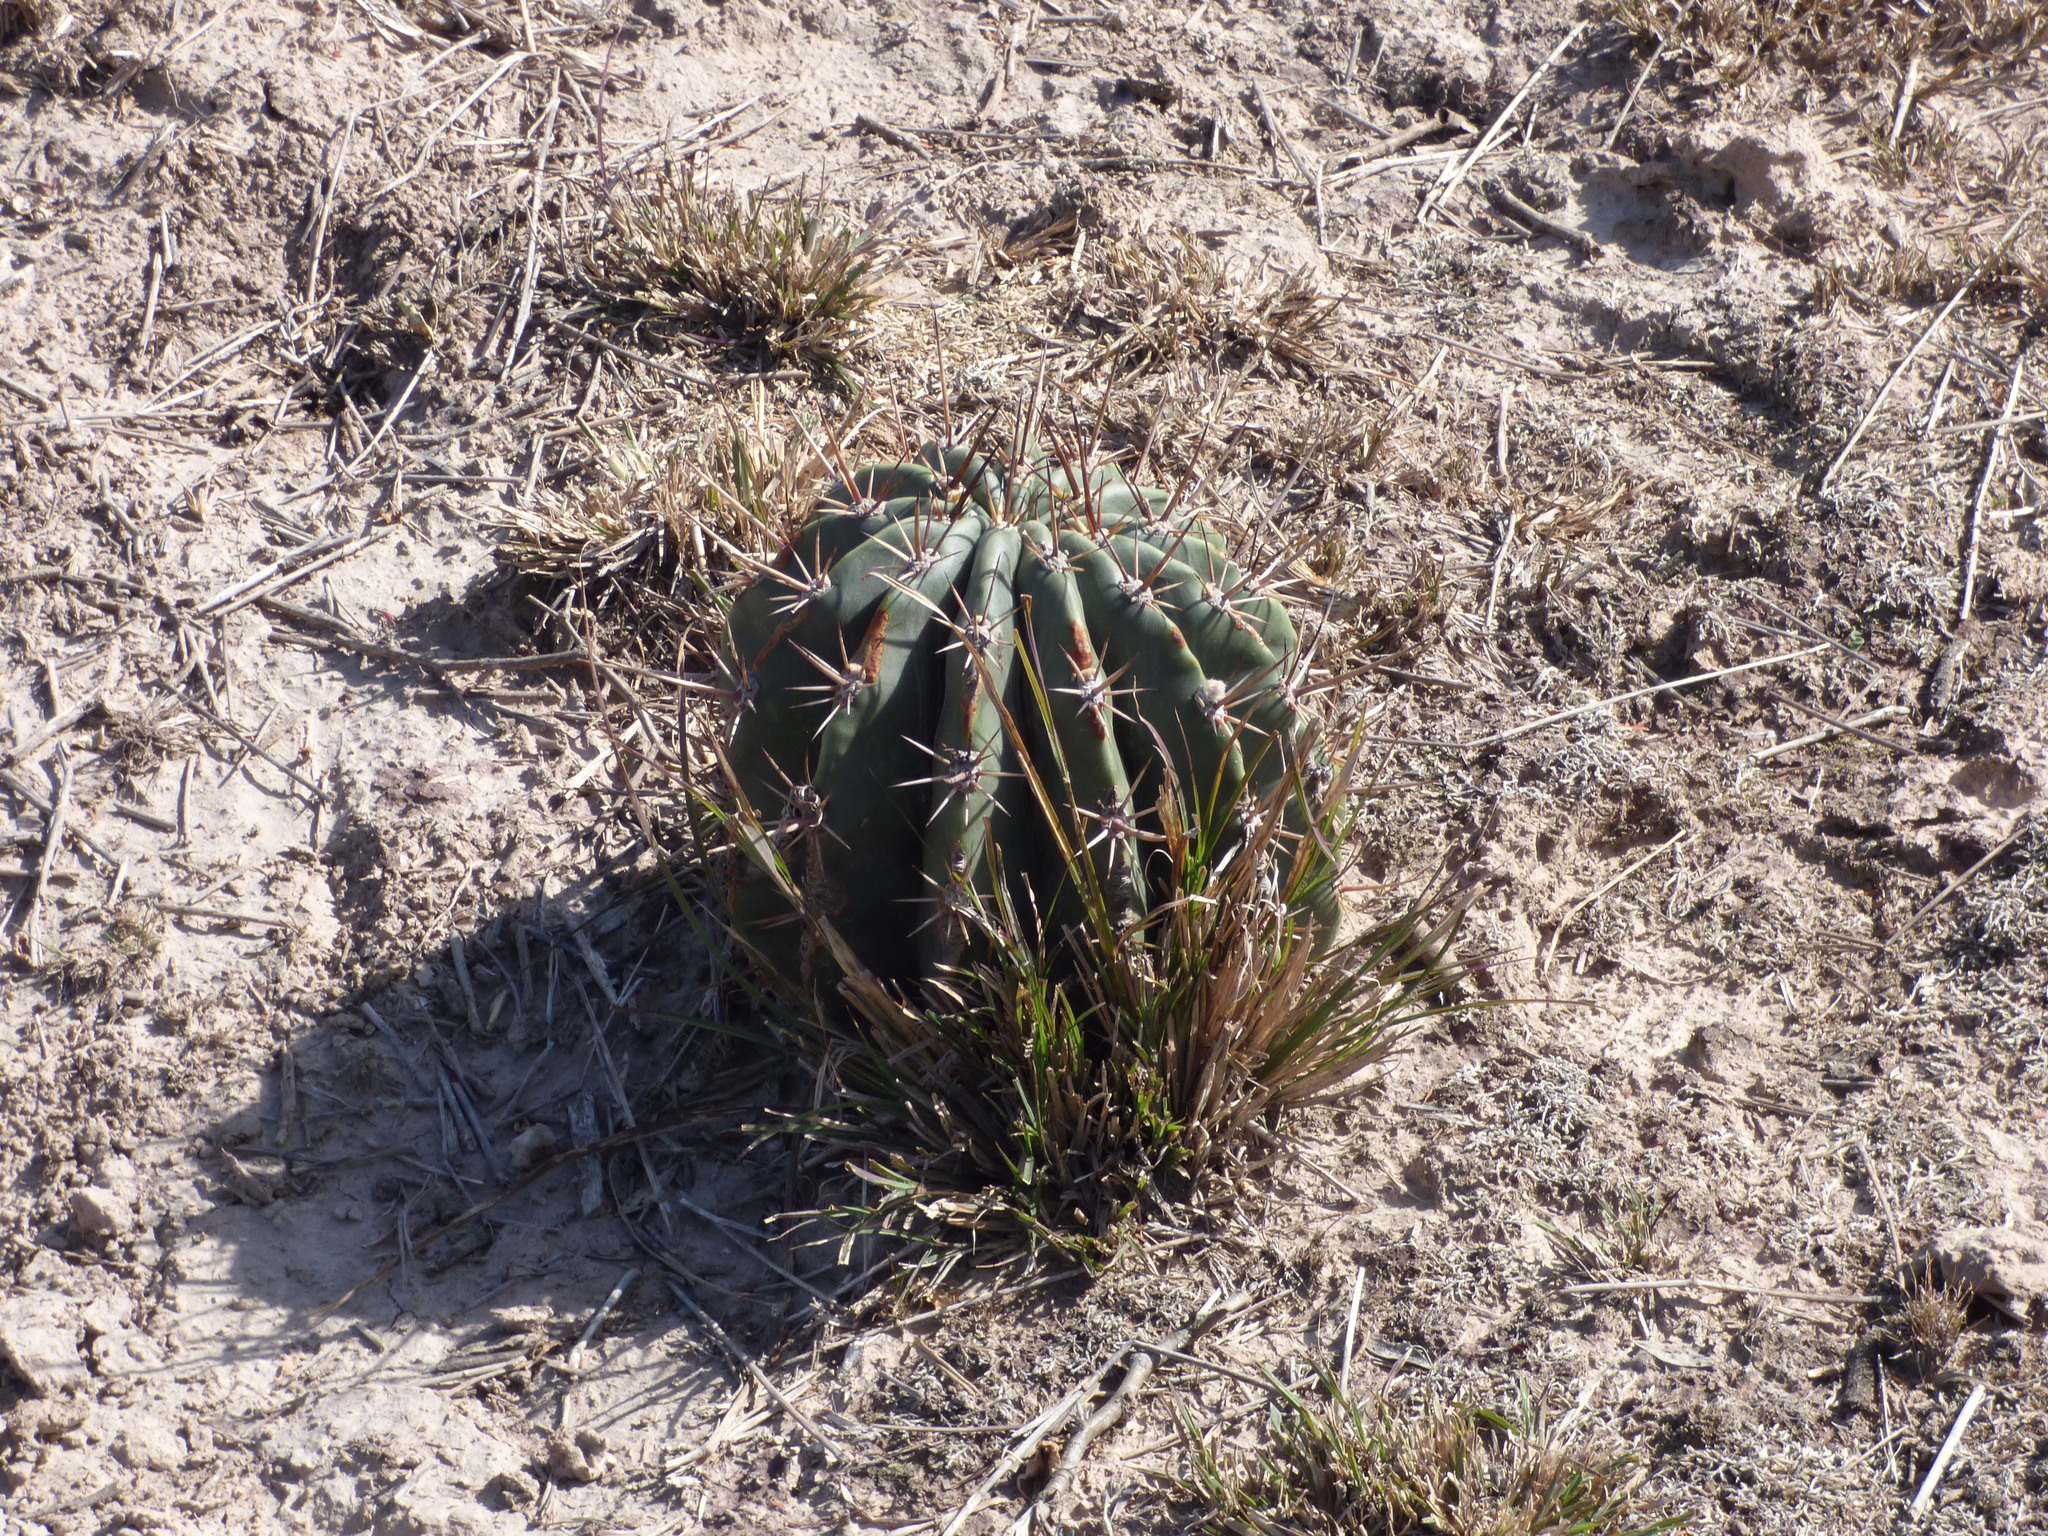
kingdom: Plantae
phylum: Tracheophyta
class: Magnoliopsida
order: Caryophyllales
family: Cactaceae
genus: Acanthocalycium
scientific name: Acanthocalycium rhodotrichum
